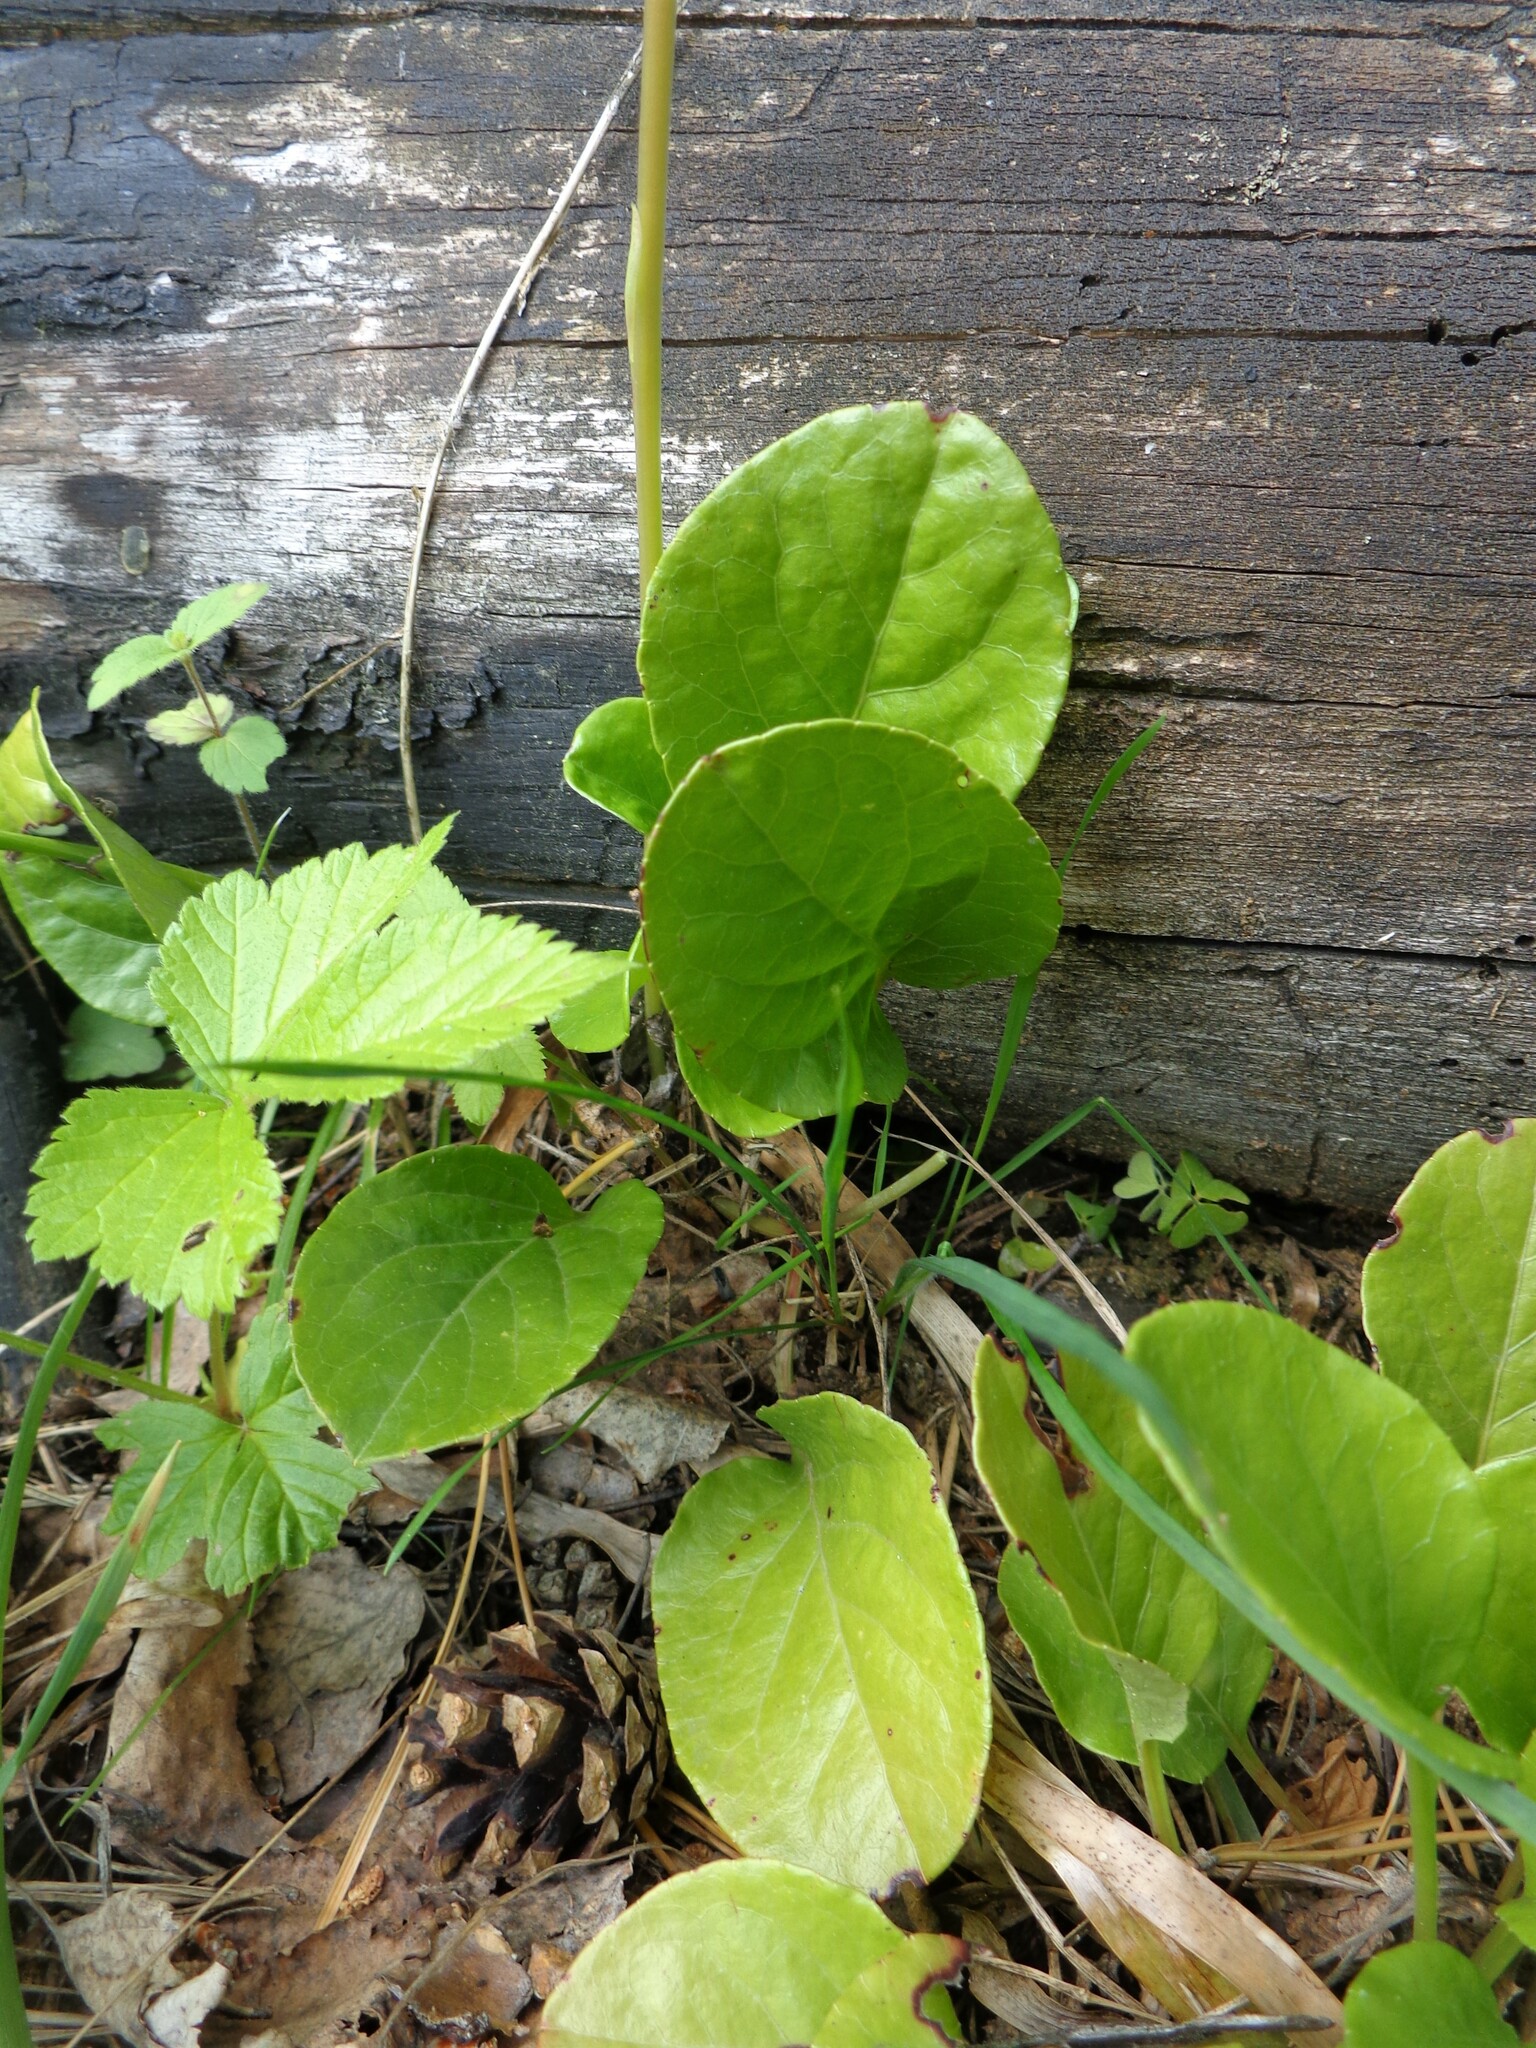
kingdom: Plantae
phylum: Tracheophyta
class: Magnoliopsida
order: Ericales
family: Ericaceae
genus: Pyrola
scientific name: Pyrola rotundifolia
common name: Round-leaved wintergreen
